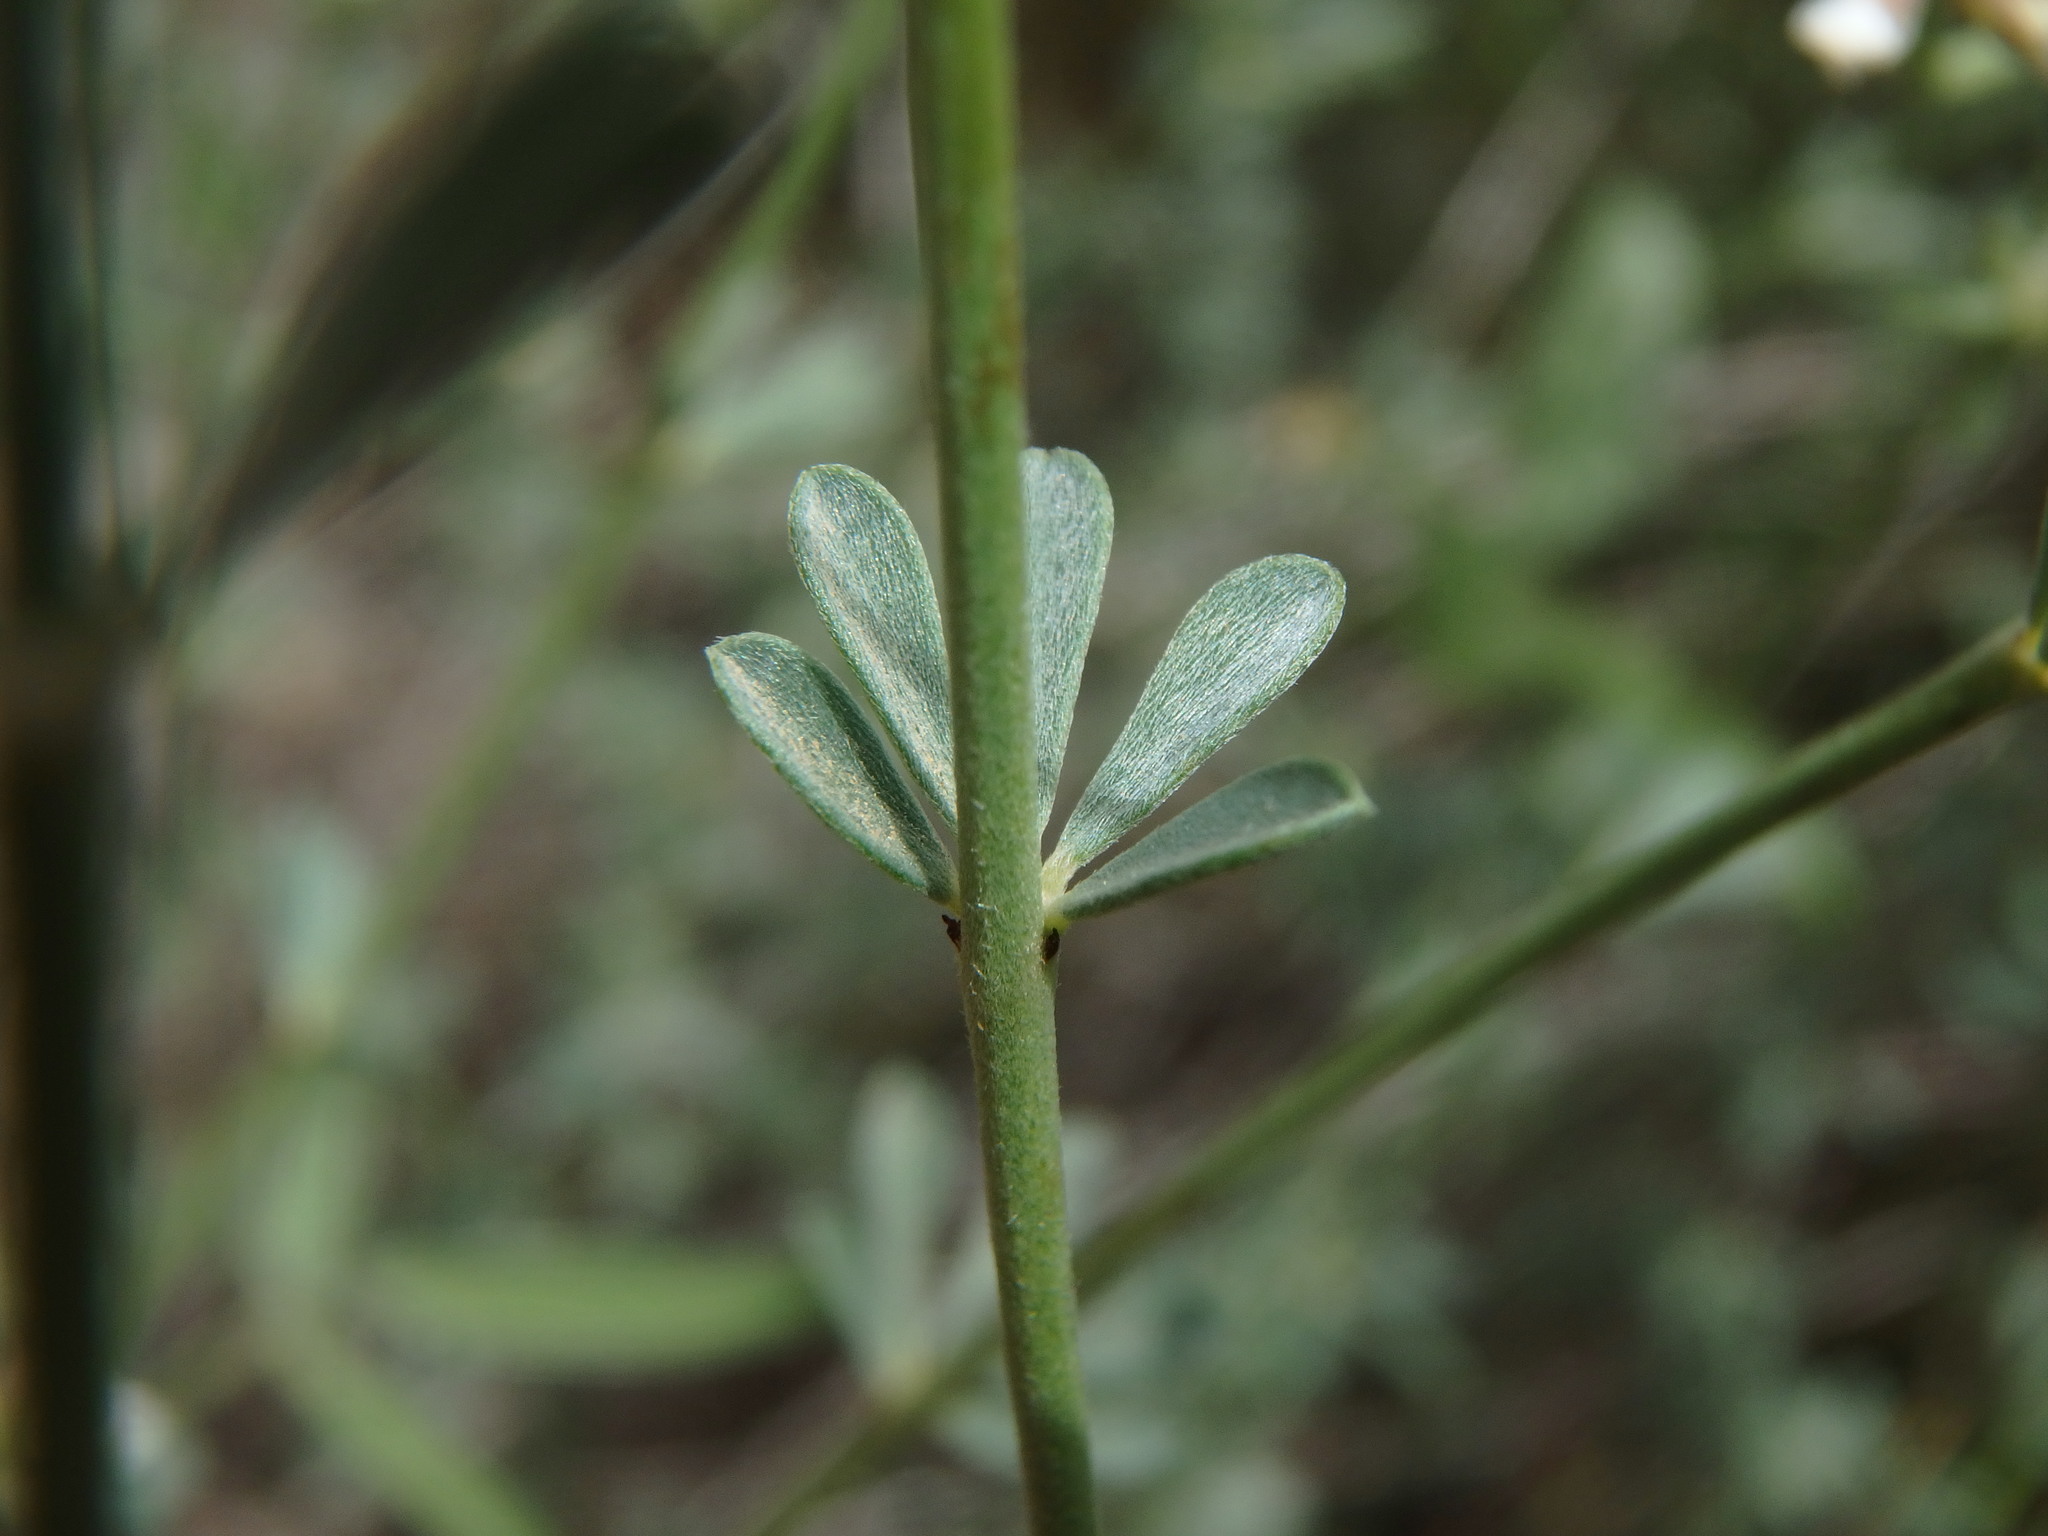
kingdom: Plantae
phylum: Tracheophyta
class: Magnoliopsida
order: Fabales
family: Fabaceae
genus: Lotus
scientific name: Lotus dorycnium
